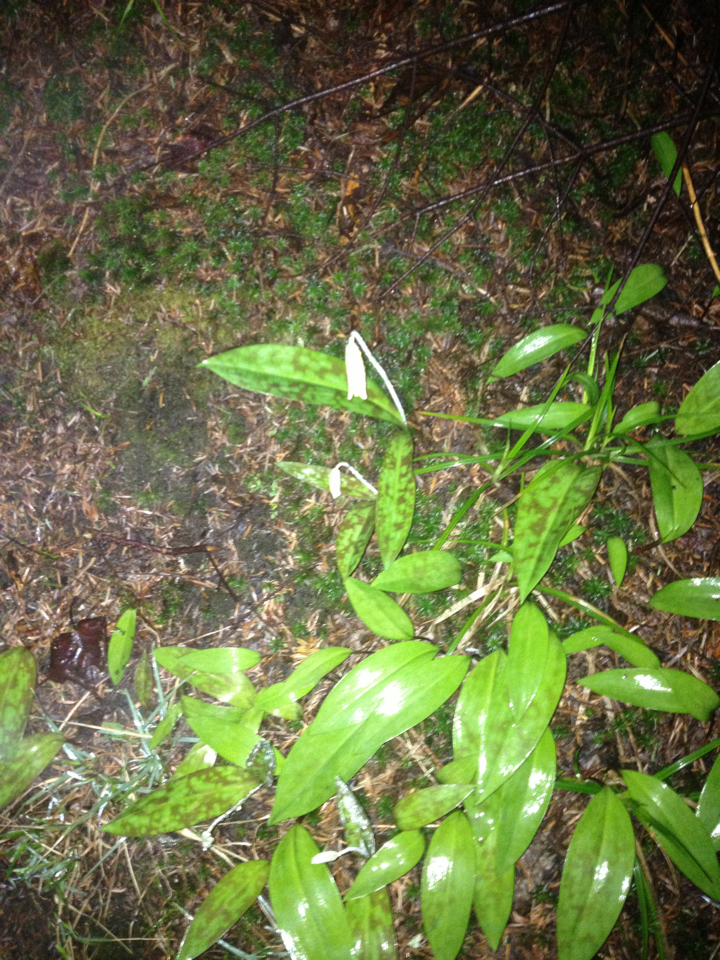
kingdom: Plantae
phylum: Tracheophyta
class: Liliopsida
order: Liliales
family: Liliaceae
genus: Erythronium
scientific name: Erythronium americanum
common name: Yellow adder's-tongue
